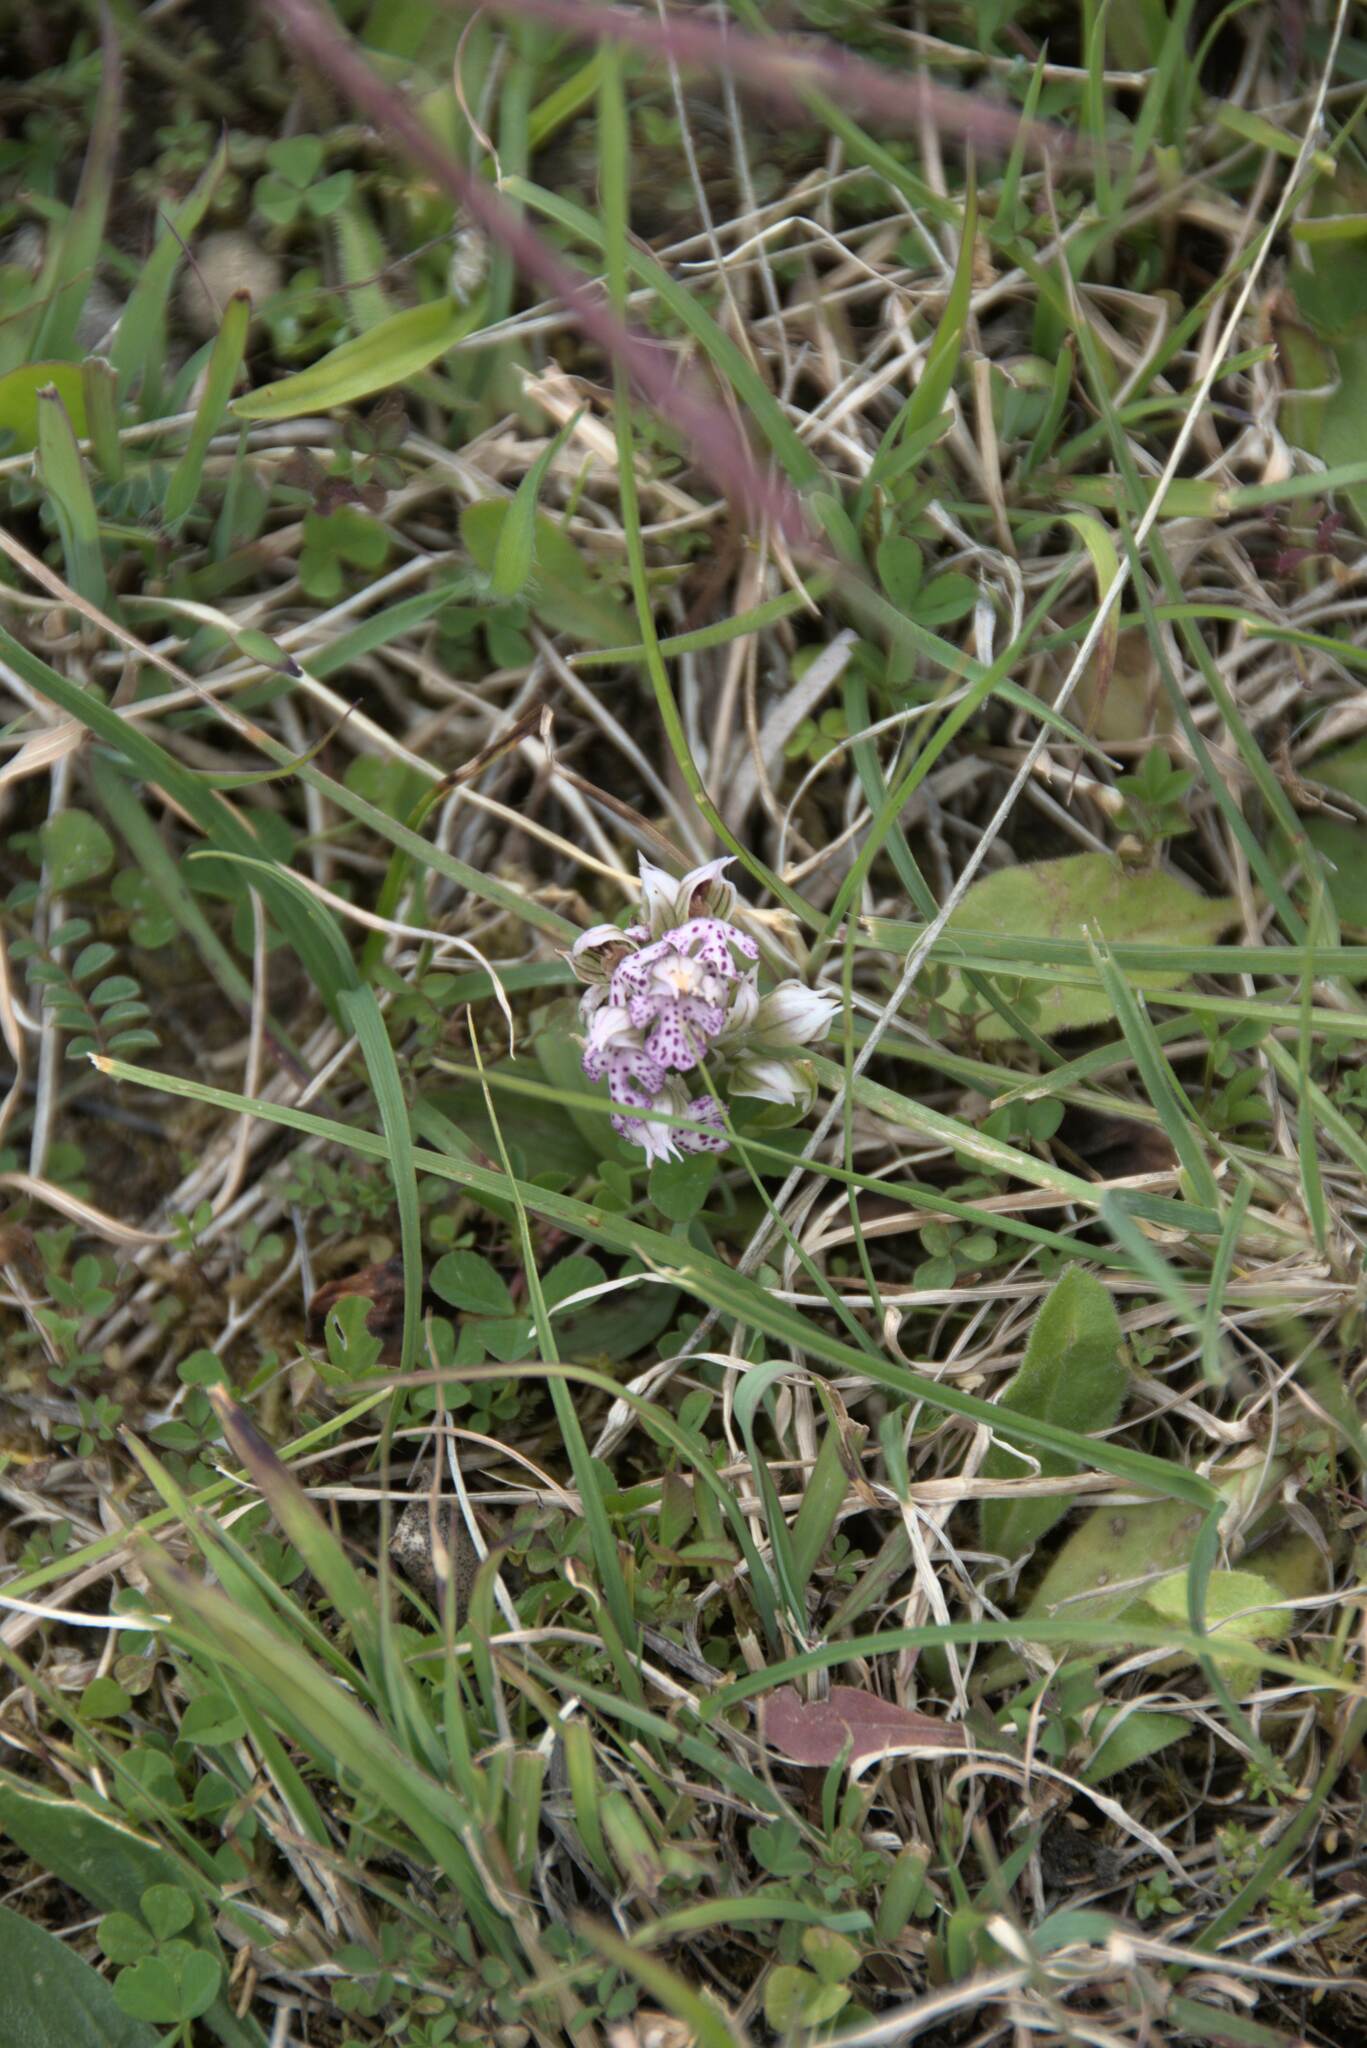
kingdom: Plantae
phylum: Tracheophyta
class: Liliopsida
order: Asparagales
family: Orchidaceae
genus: Neotinea
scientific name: Neotinea lactea
